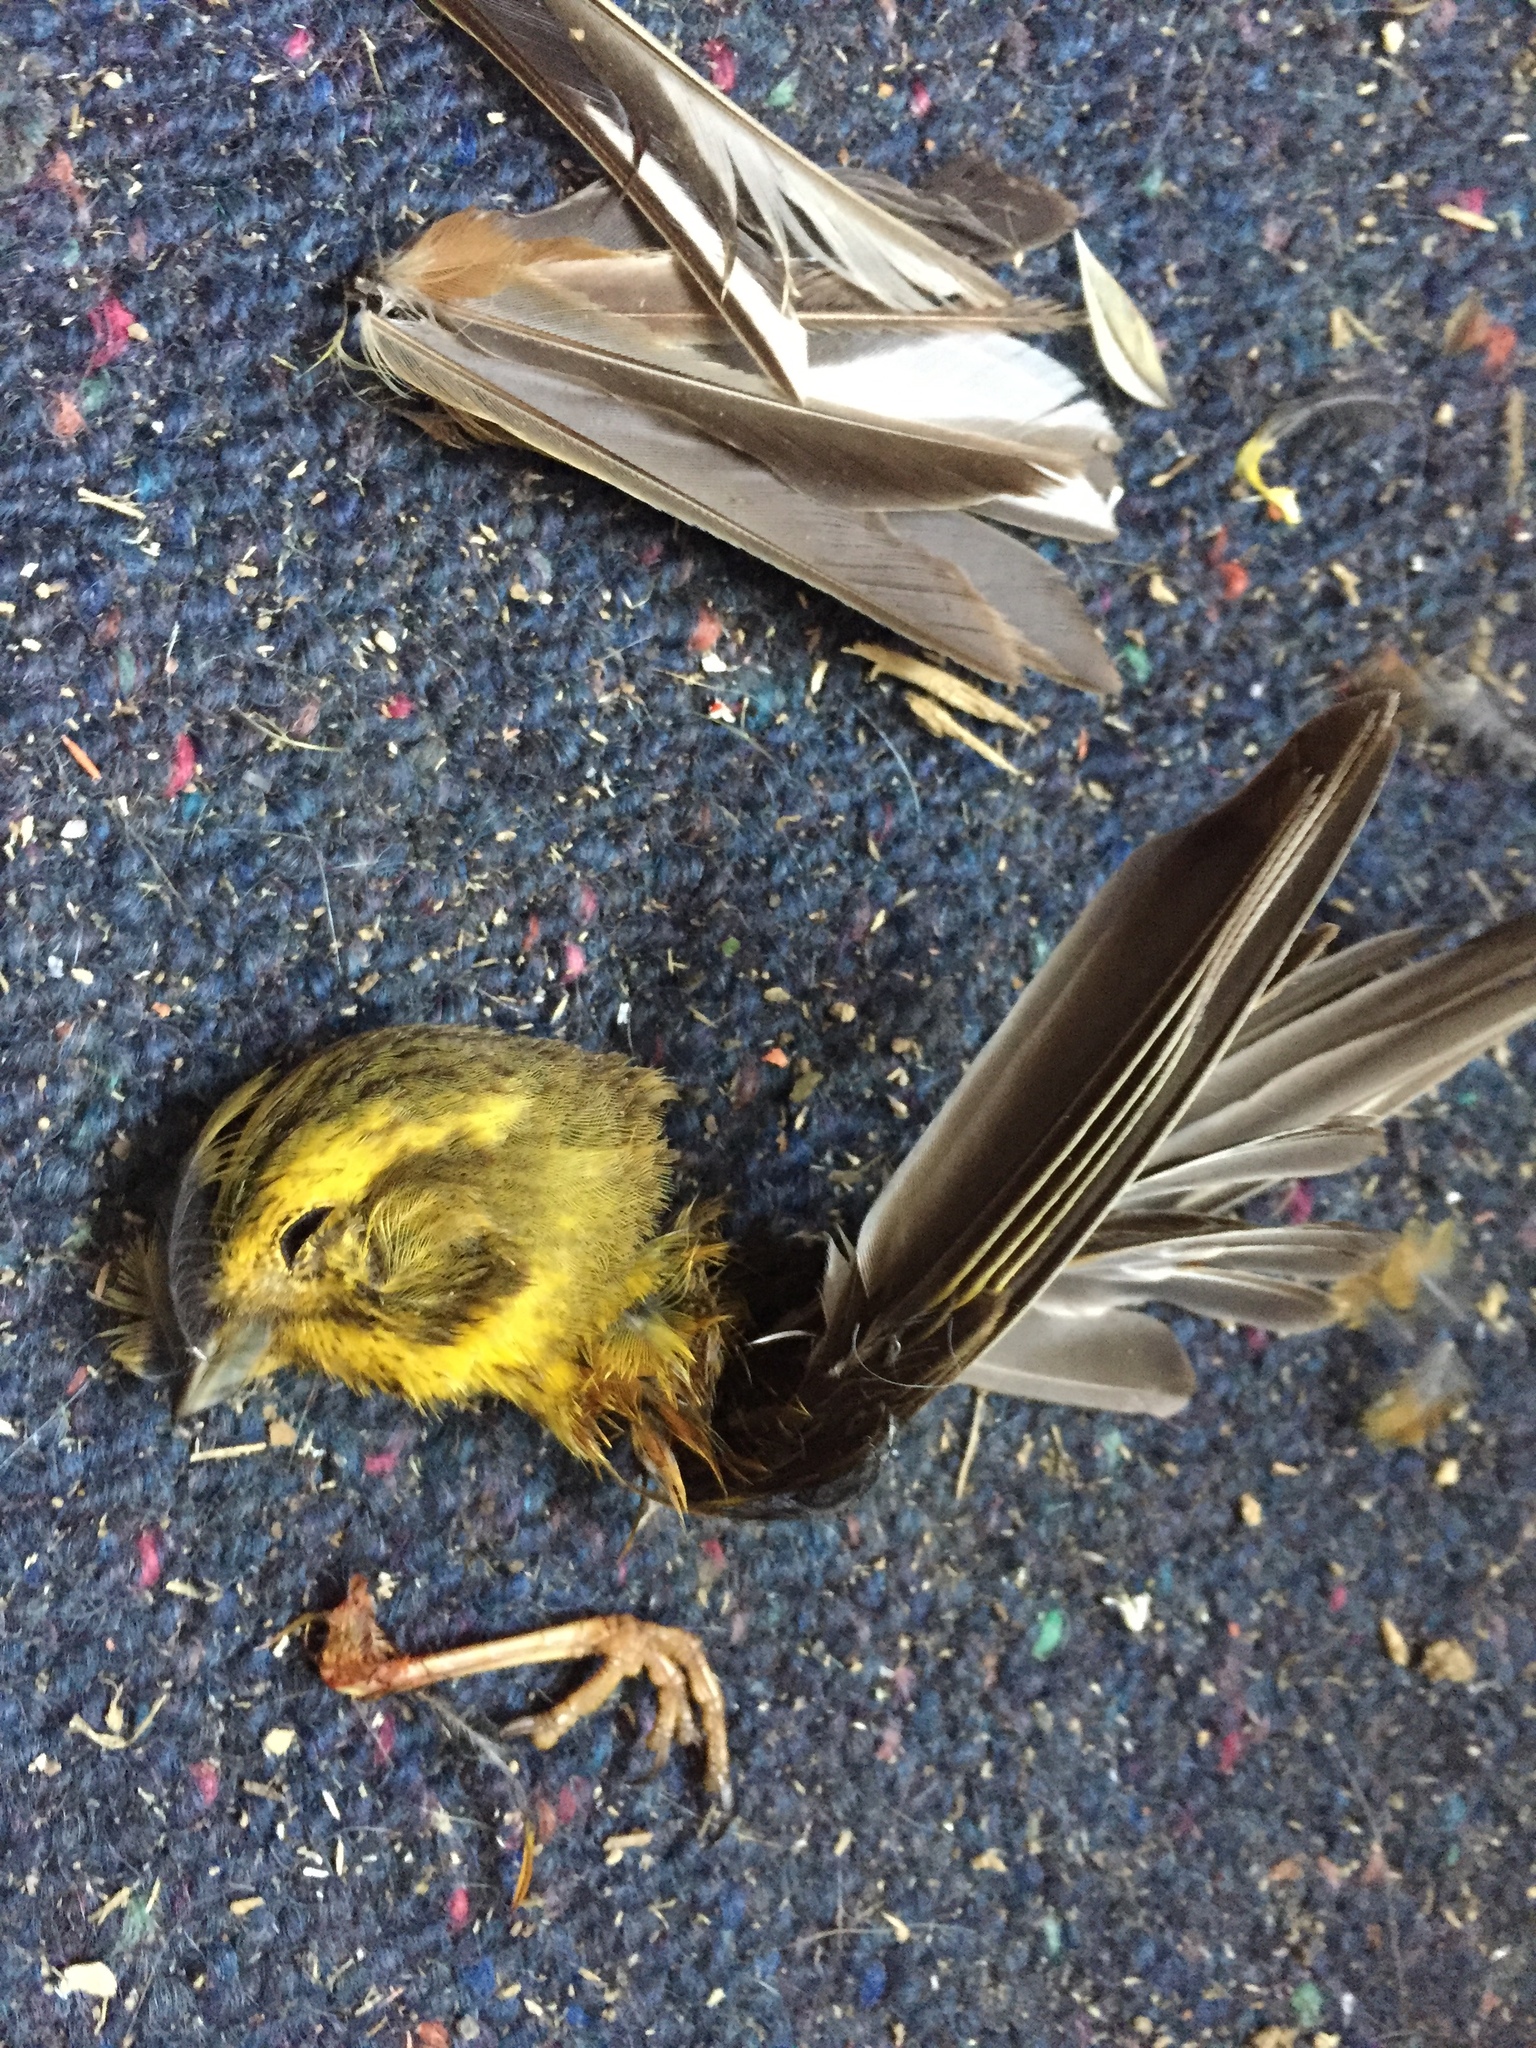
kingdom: Animalia
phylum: Chordata
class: Aves
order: Passeriformes
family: Emberizidae
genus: Emberiza
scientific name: Emberiza citrinella
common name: Yellowhammer
